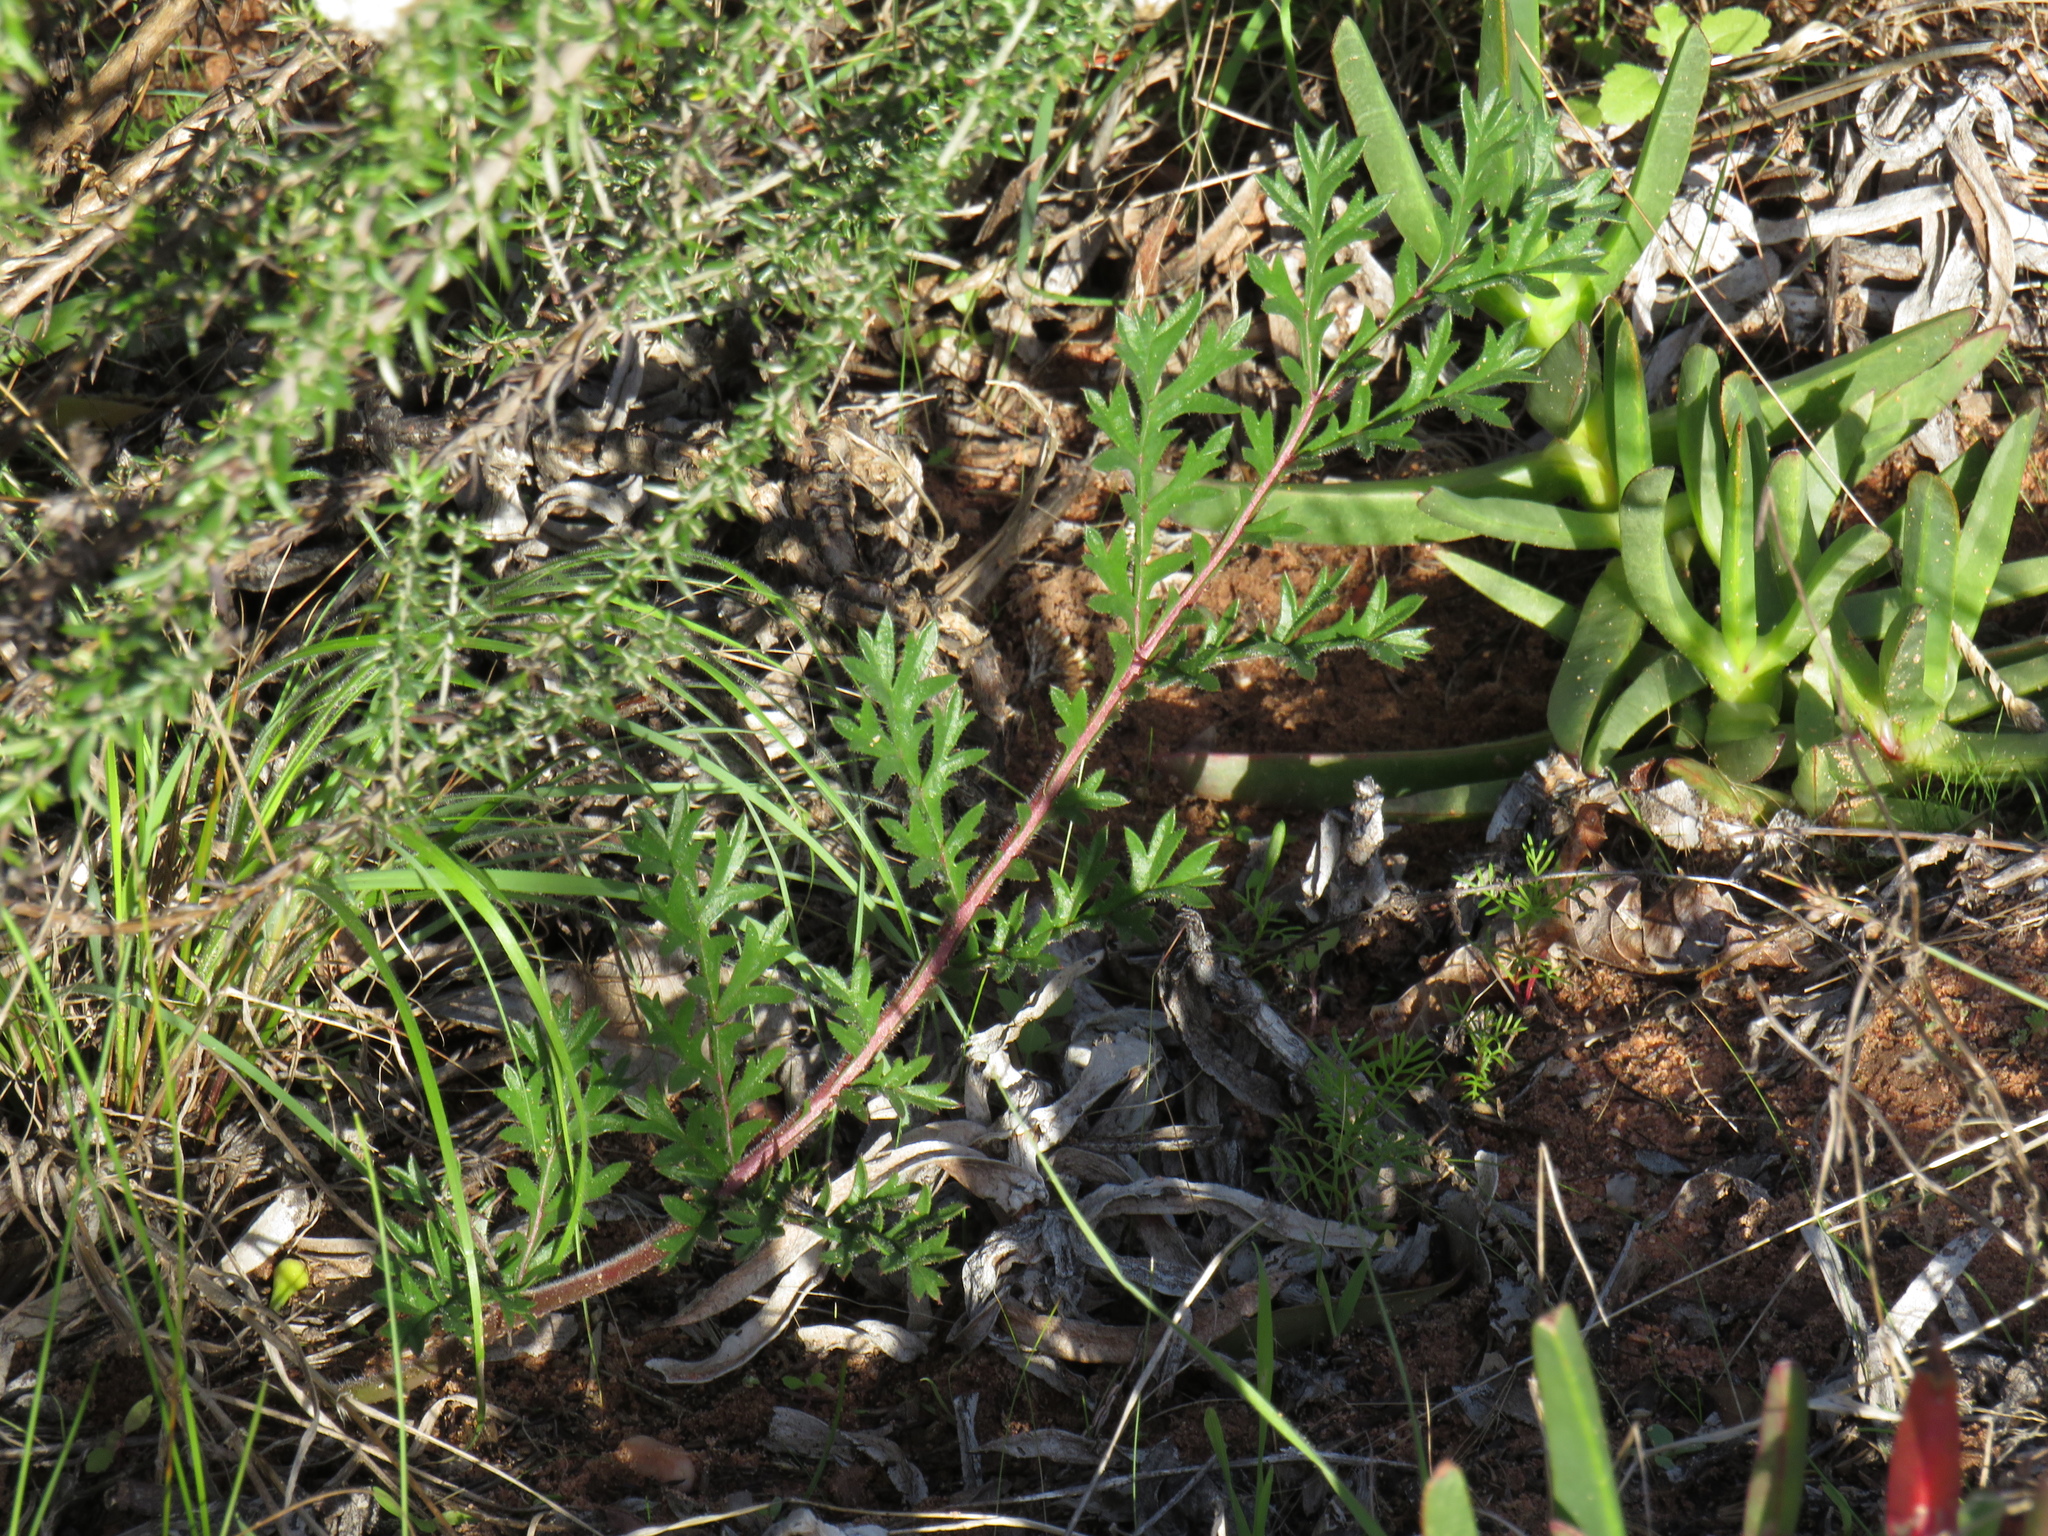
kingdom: Plantae
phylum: Tracheophyta
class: Magnoliopsida
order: Geraniales
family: Geraniaceae
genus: Pelargonium
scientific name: Pelargonium triste
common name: Night-scent pelargonium
